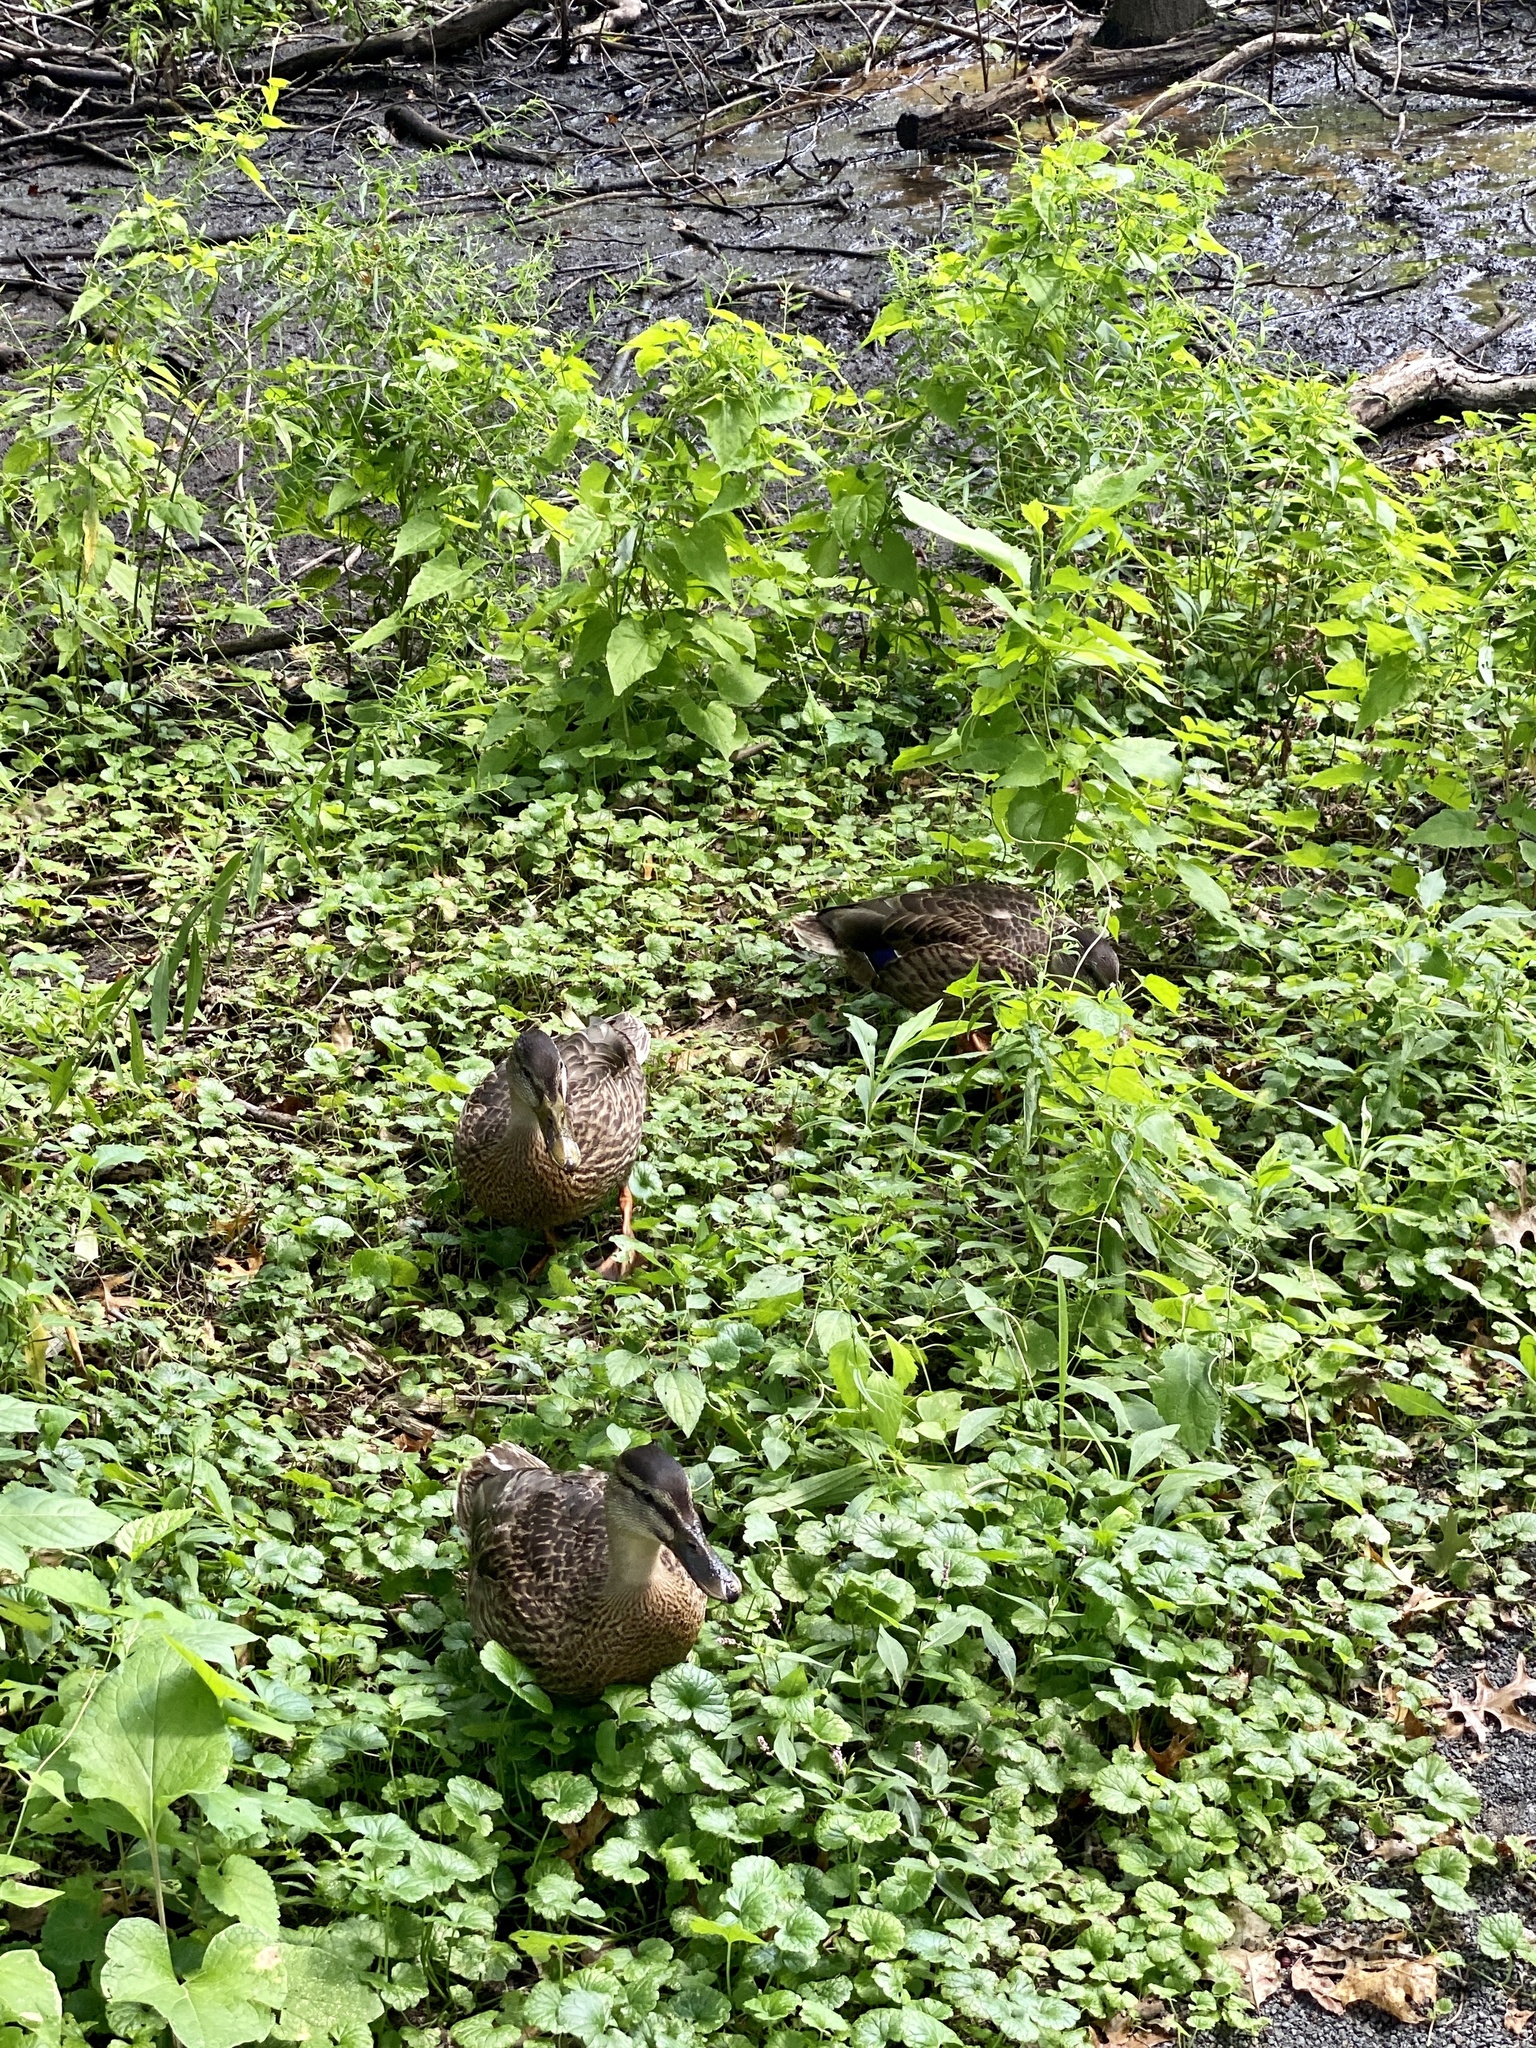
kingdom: Animalia
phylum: Chordata
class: Aves
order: Anseriformes
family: Anatidae
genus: Anas
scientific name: Anas platyrhynchos
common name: Mallard
